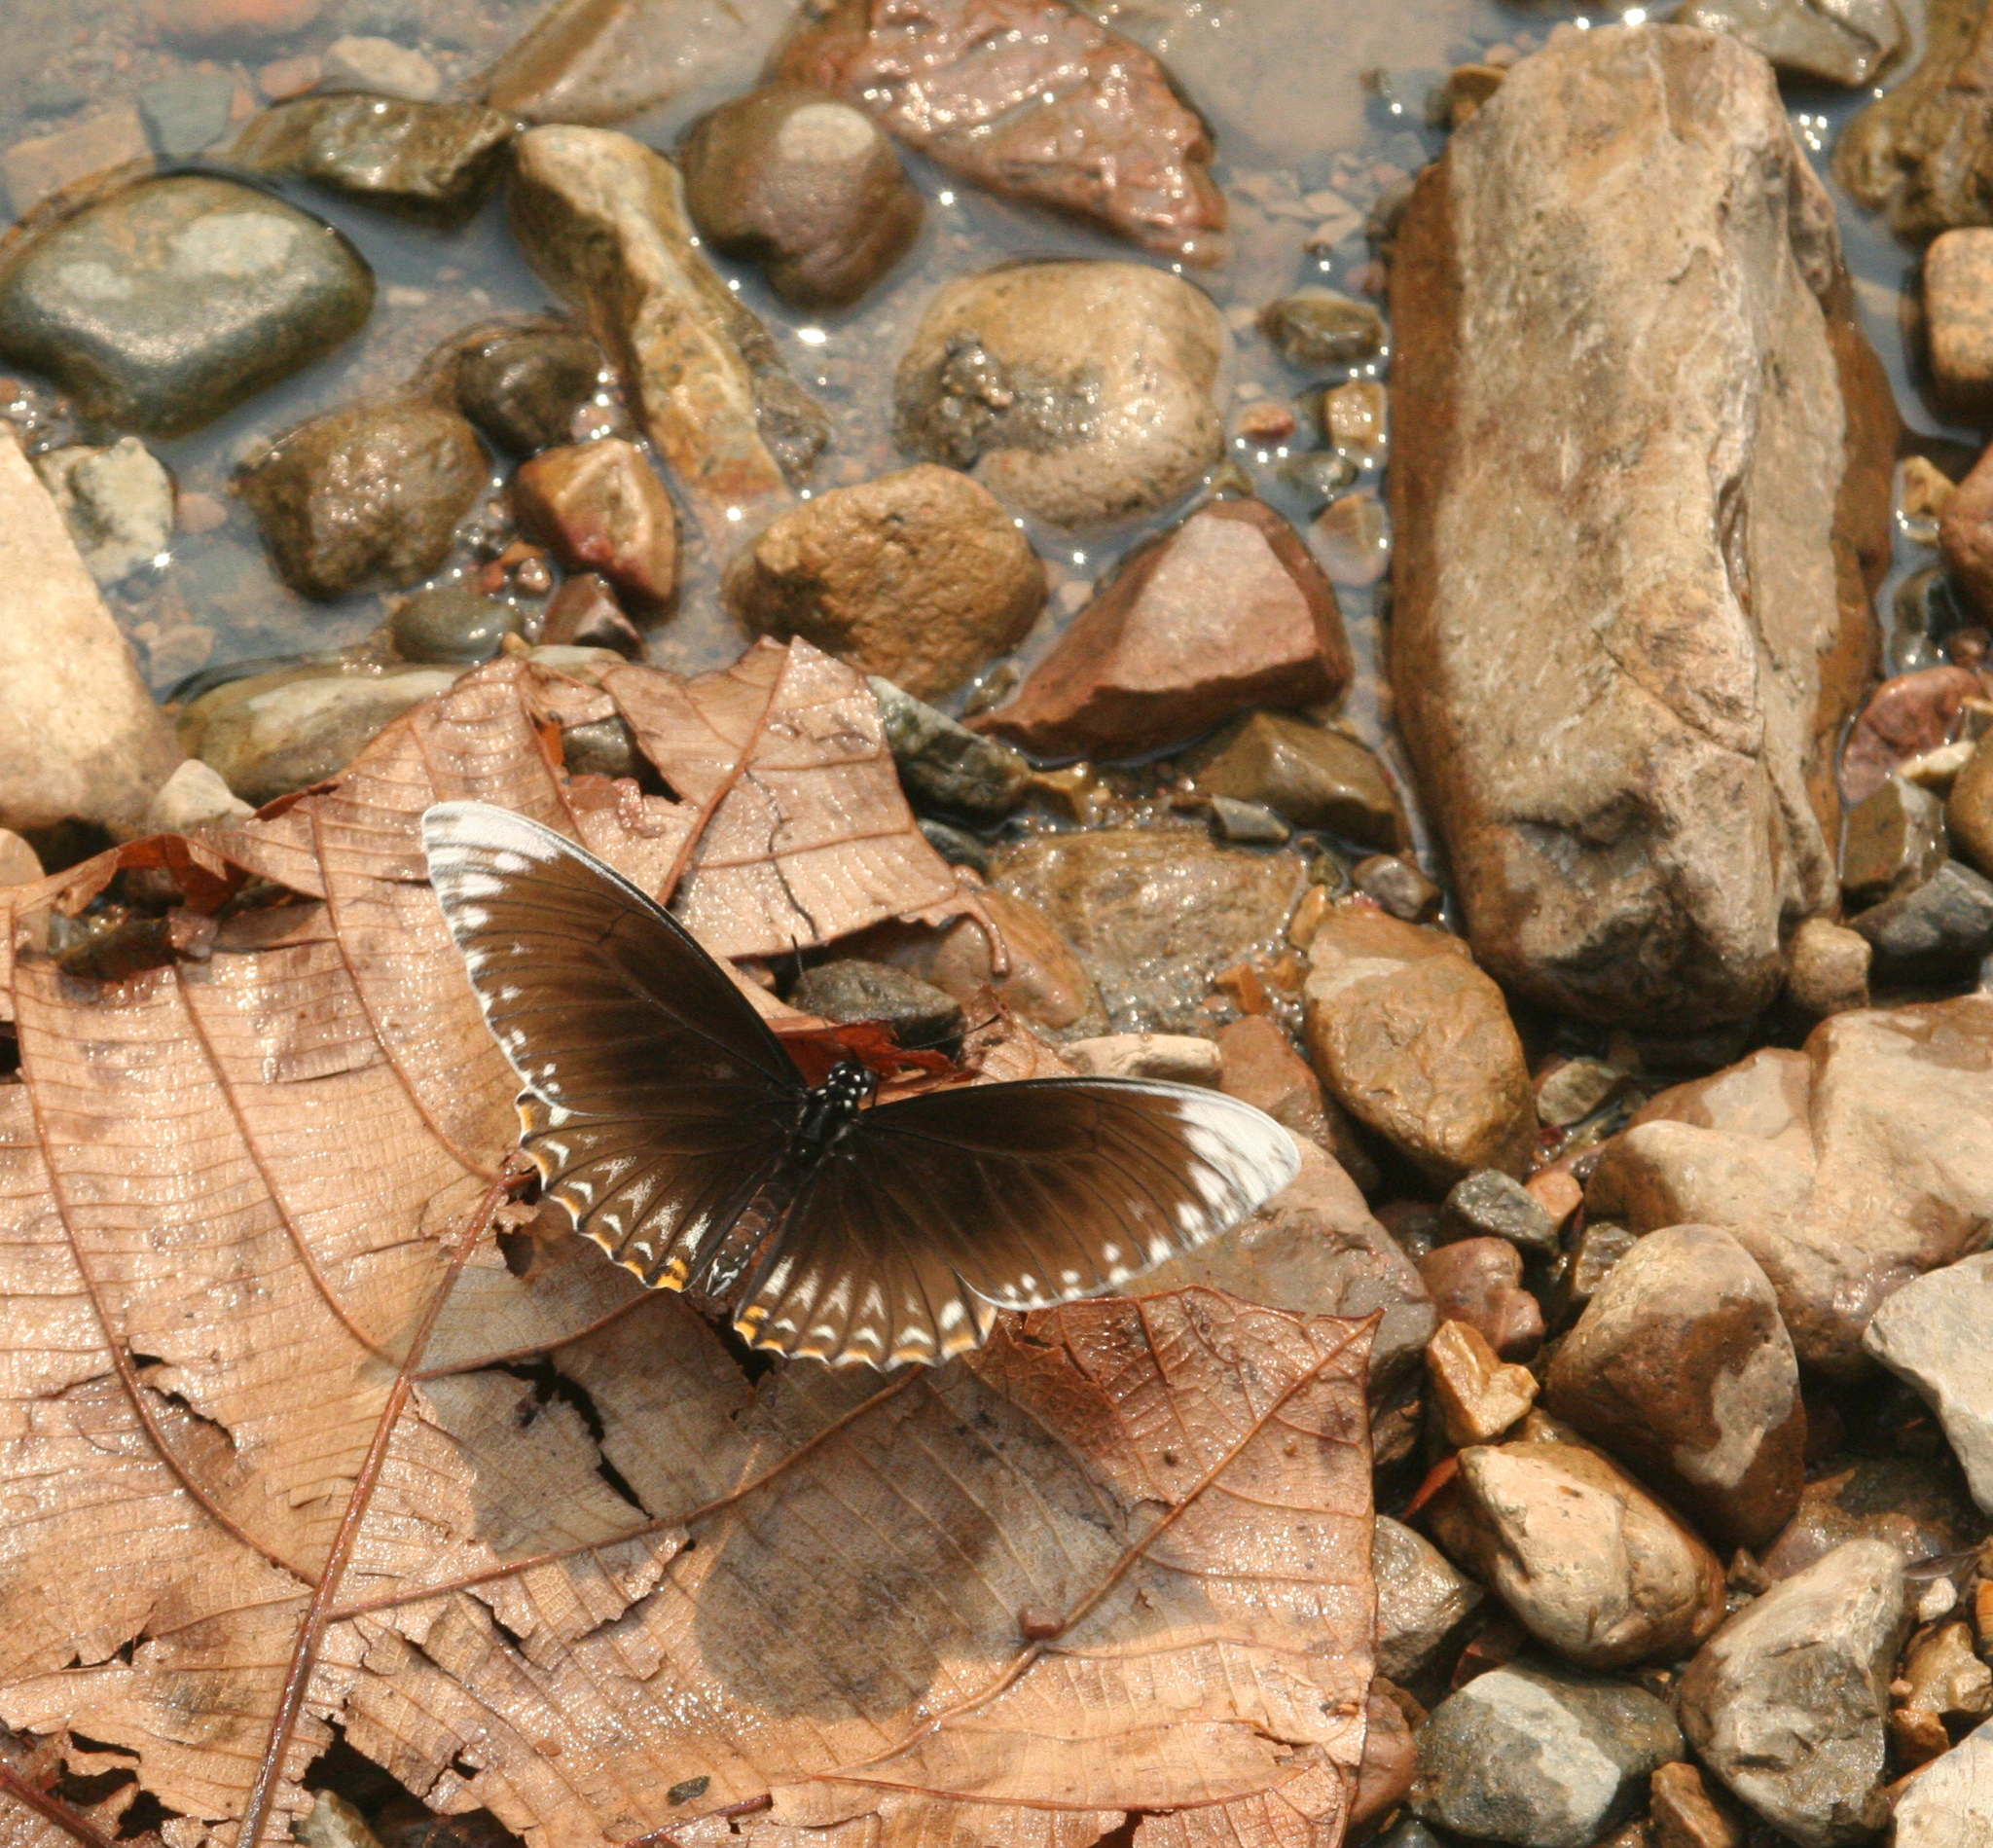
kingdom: Animalia
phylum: Arthropoda
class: Insecta
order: Lepidoptera
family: Papilionidae
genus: Chilasa
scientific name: Chilasa clytia
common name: Common mime
